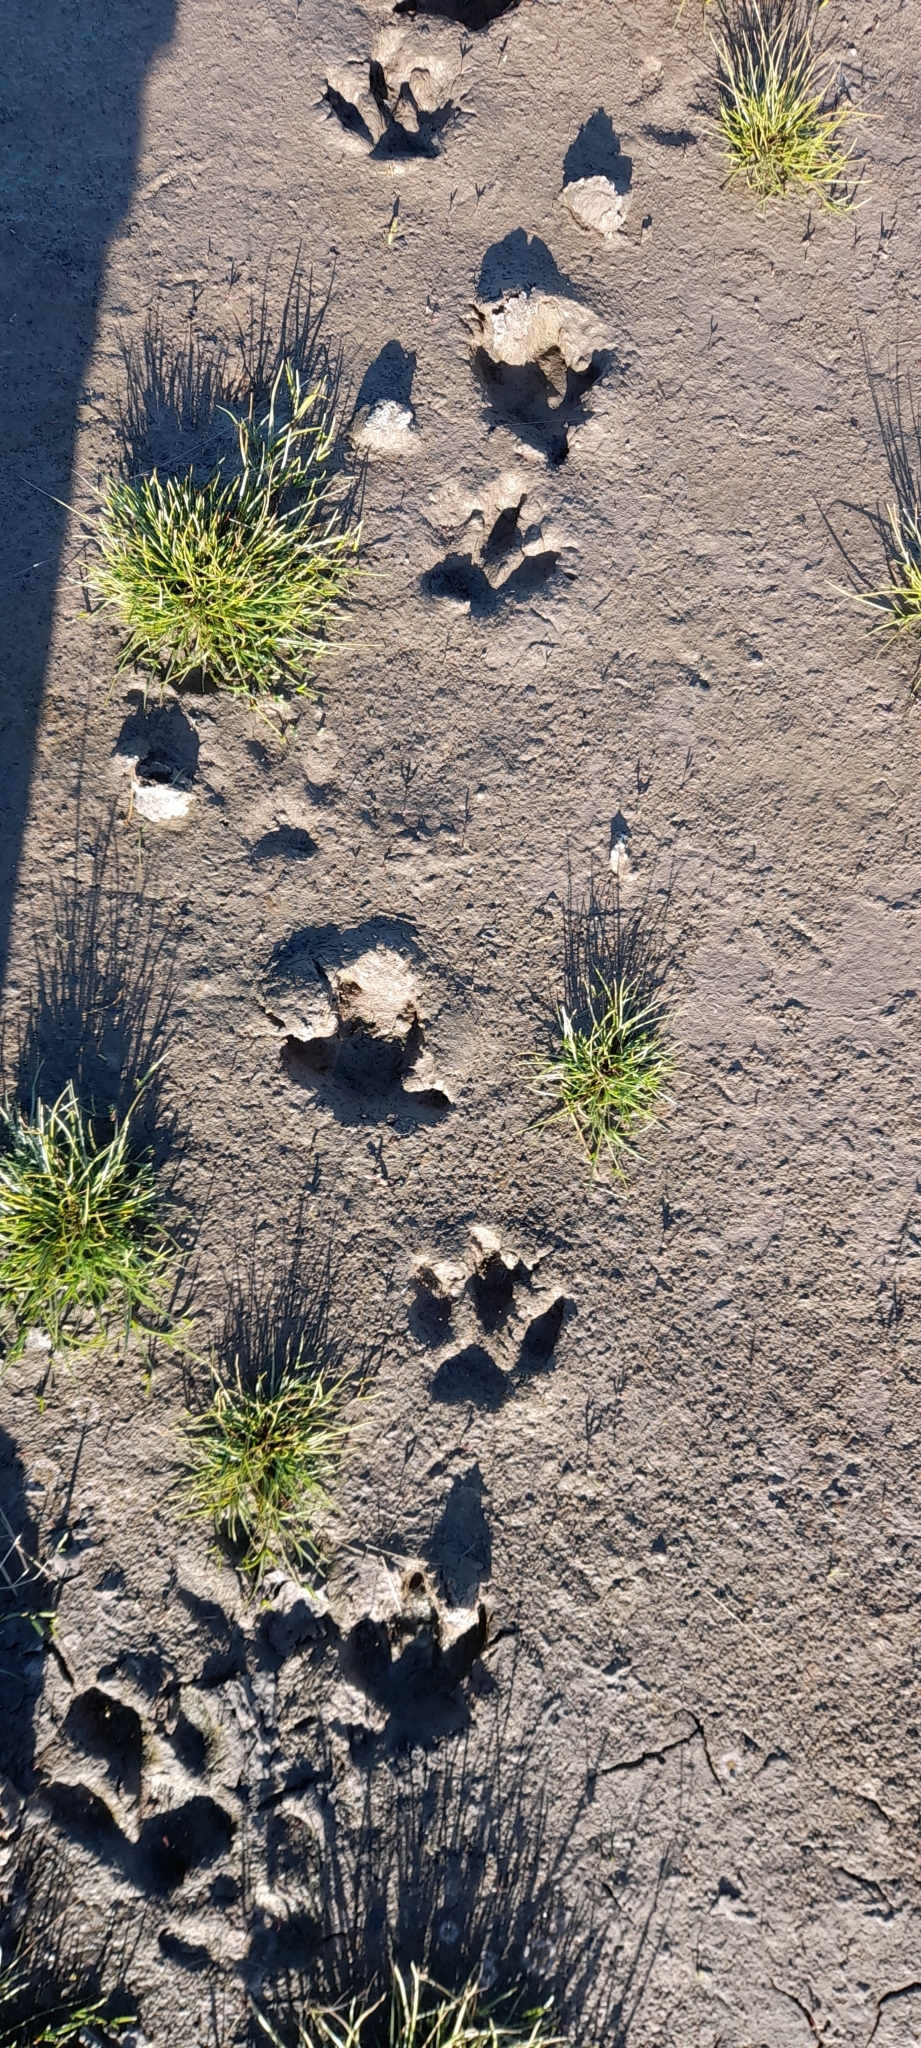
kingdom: Animalia
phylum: Chordata
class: Mammalia
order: Rodentia
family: Caviidae
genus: Hydrochoerus
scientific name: Hydrochoerus hydrochaeris
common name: Capybara
